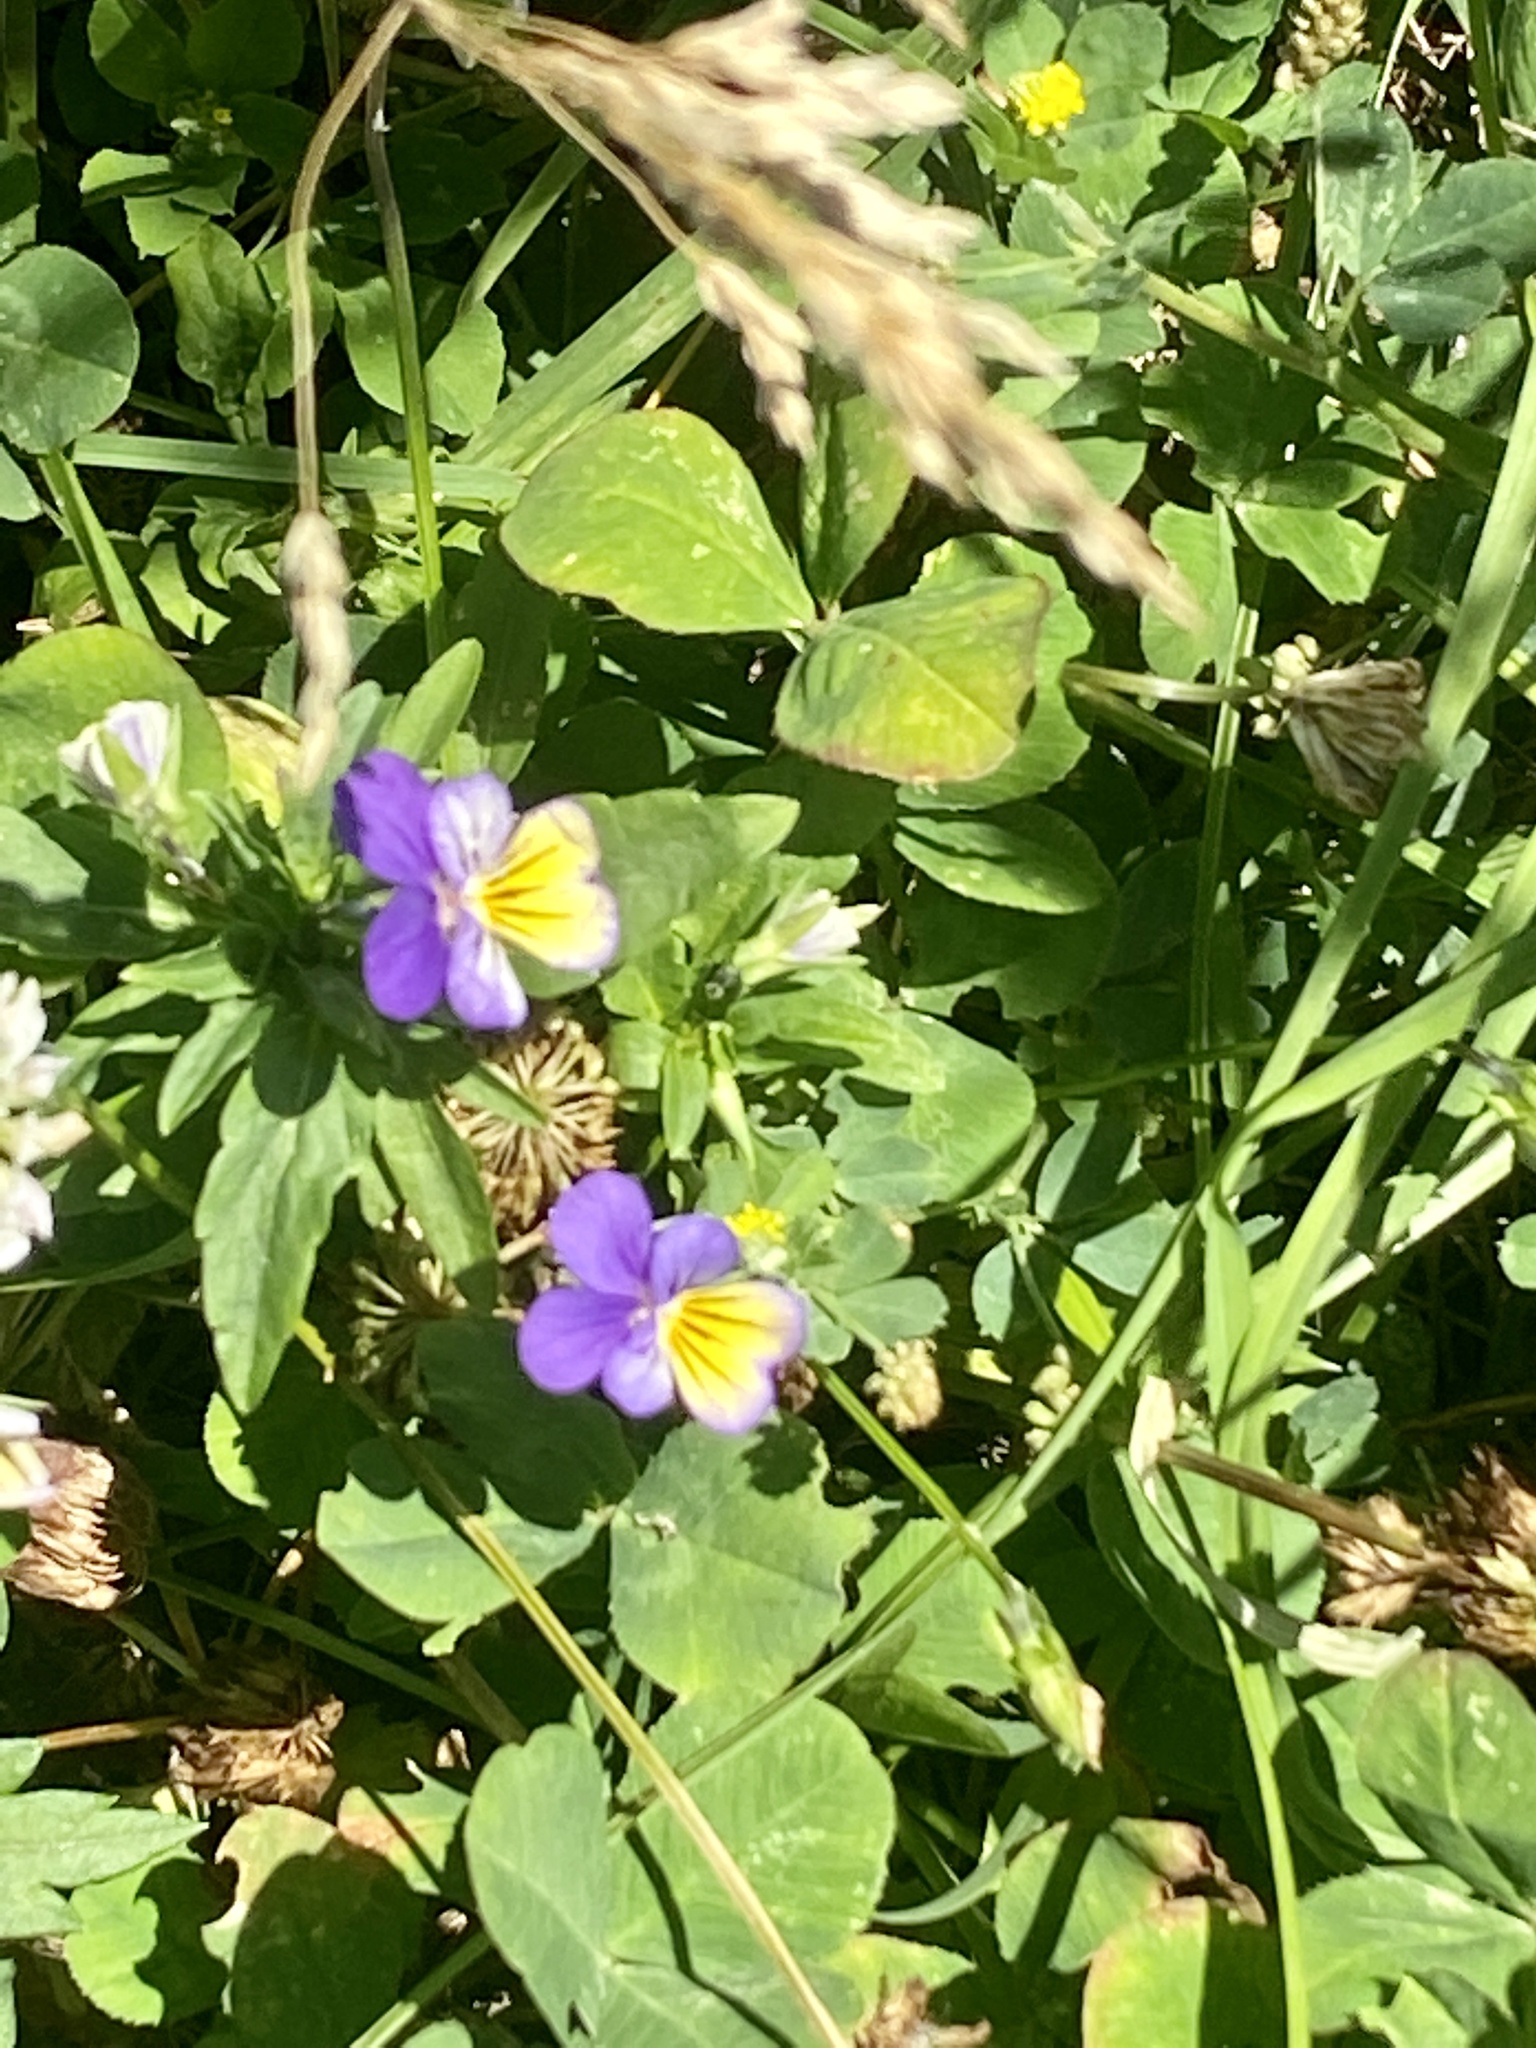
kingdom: Plantae
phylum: Tracheophyta
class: Magnoliopsida
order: Malpighiales
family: Violaceae
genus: Viola
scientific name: Viola tricolor
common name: Pansy
